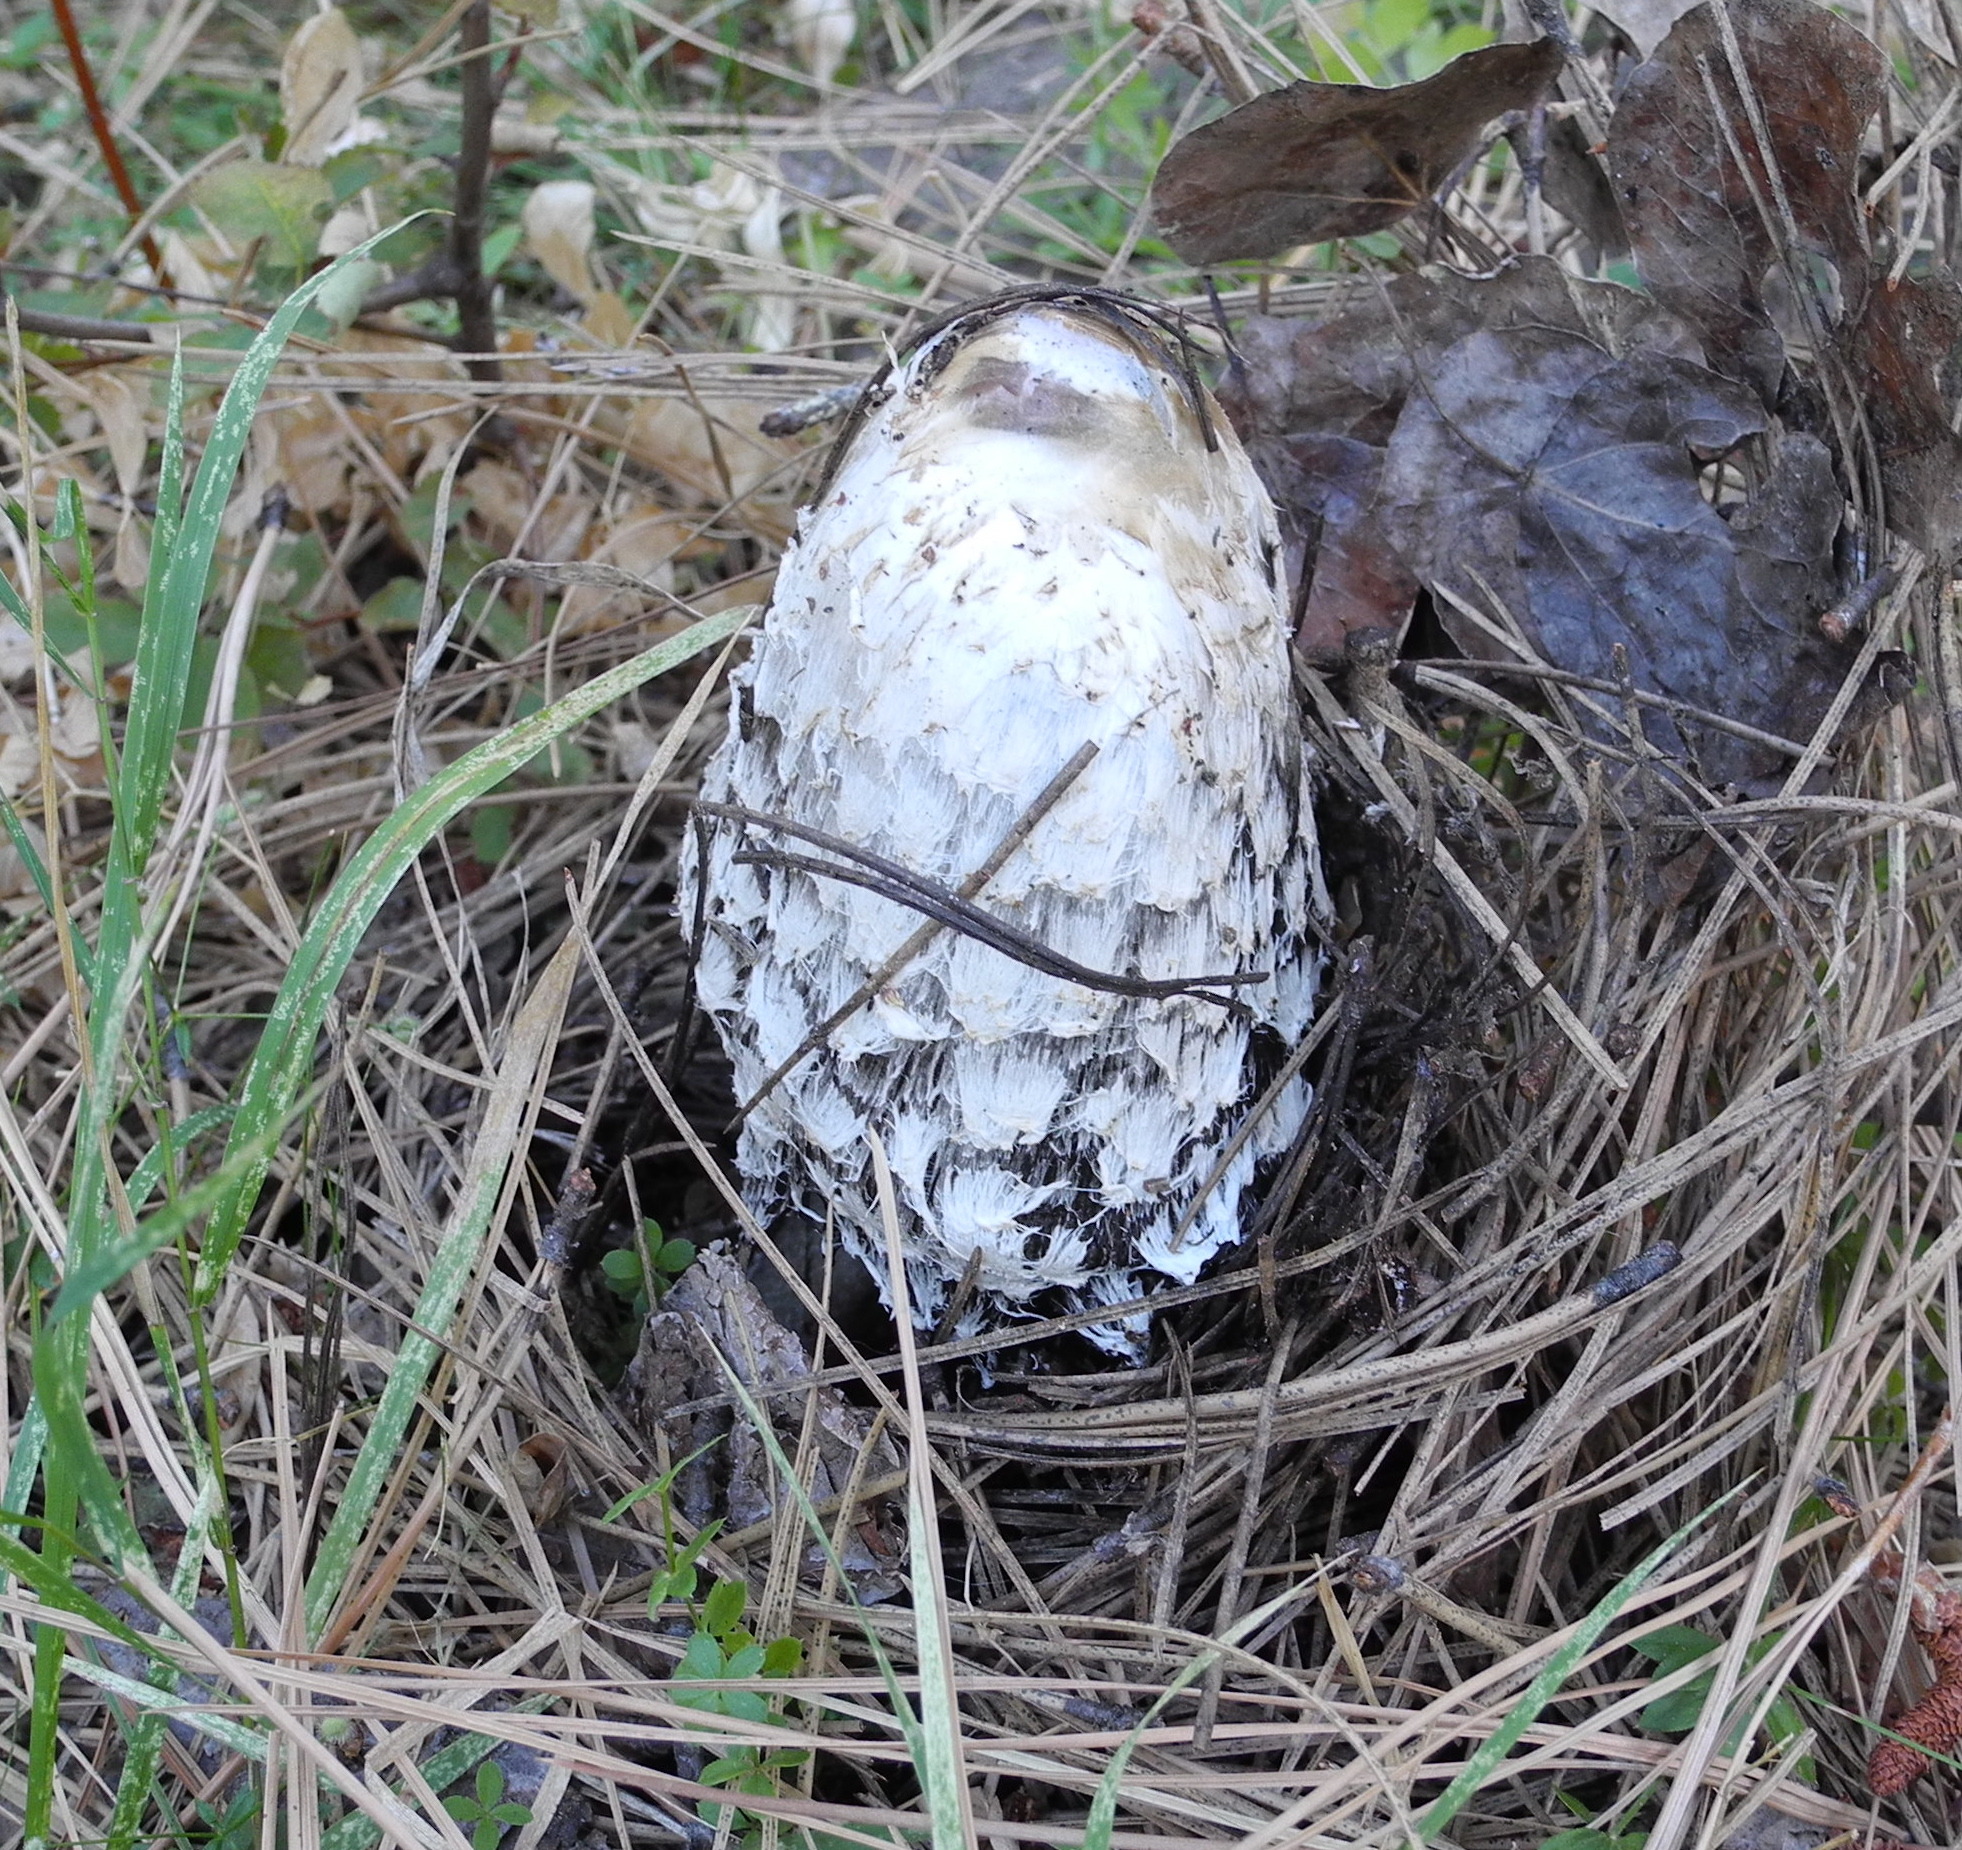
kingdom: Fungi
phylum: Basidiomycota
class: Agaricomycetes
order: Agaricales
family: Agaricaceae
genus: Coprinus
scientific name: Coprinus comatus
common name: Lawyer's wig
